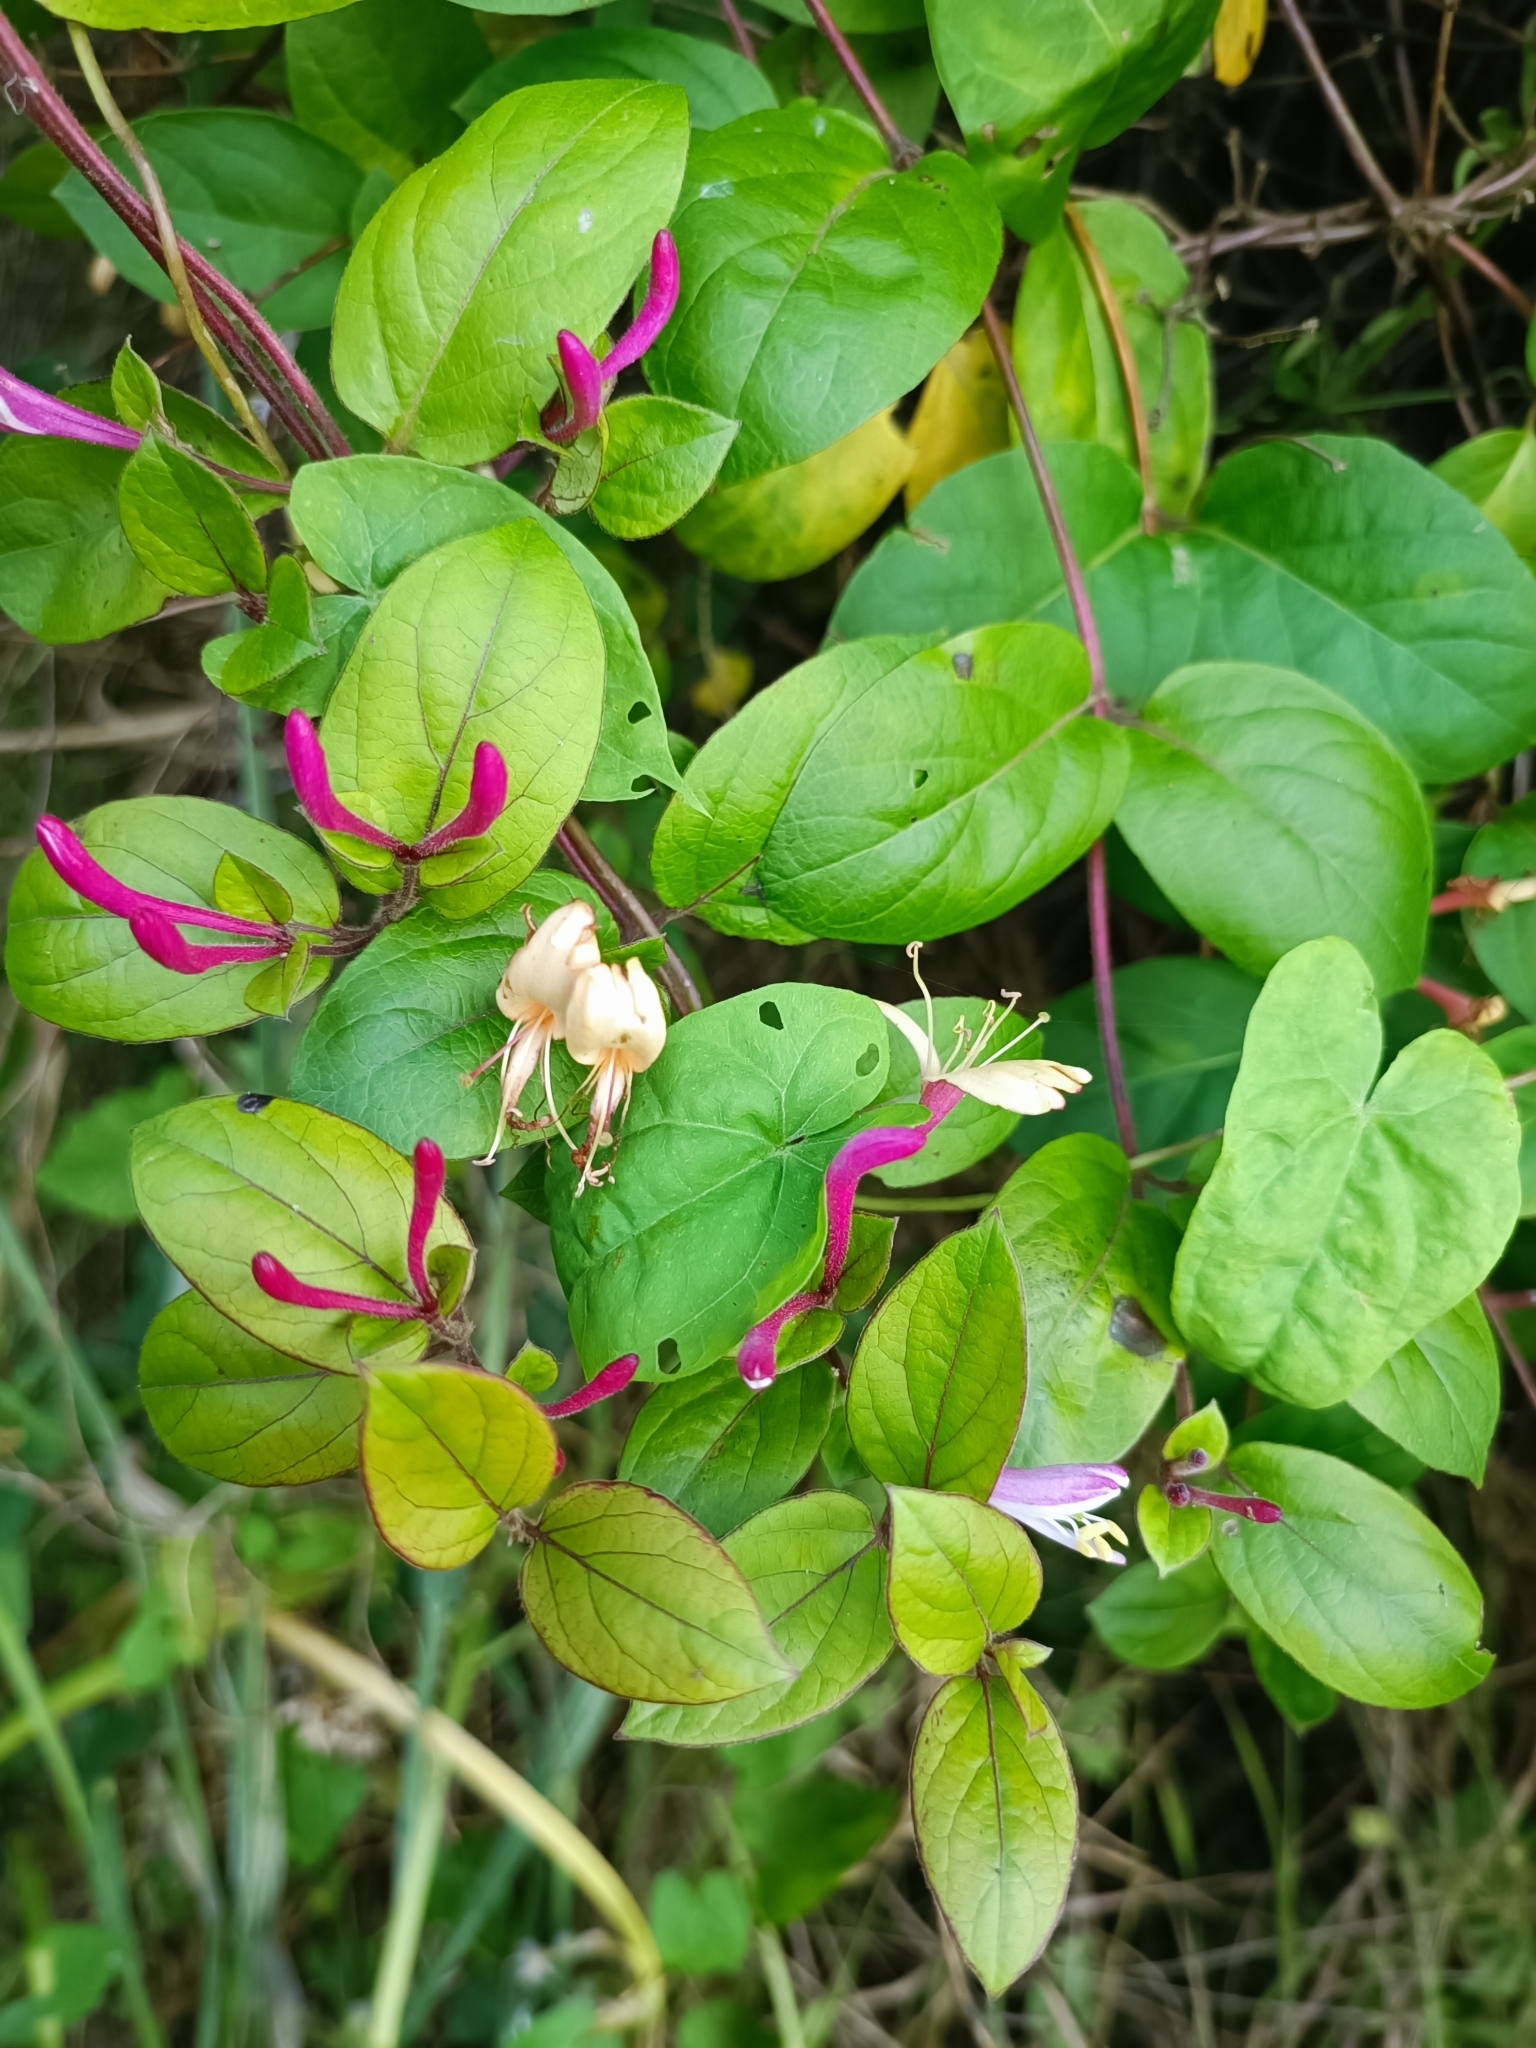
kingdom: Plantae
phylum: Tracheophyta
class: Magnoliopsida
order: Dipsacales
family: Caprifoliaceae
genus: Lonicera
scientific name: Lonicera japonica
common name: Japanese honeysuckle
